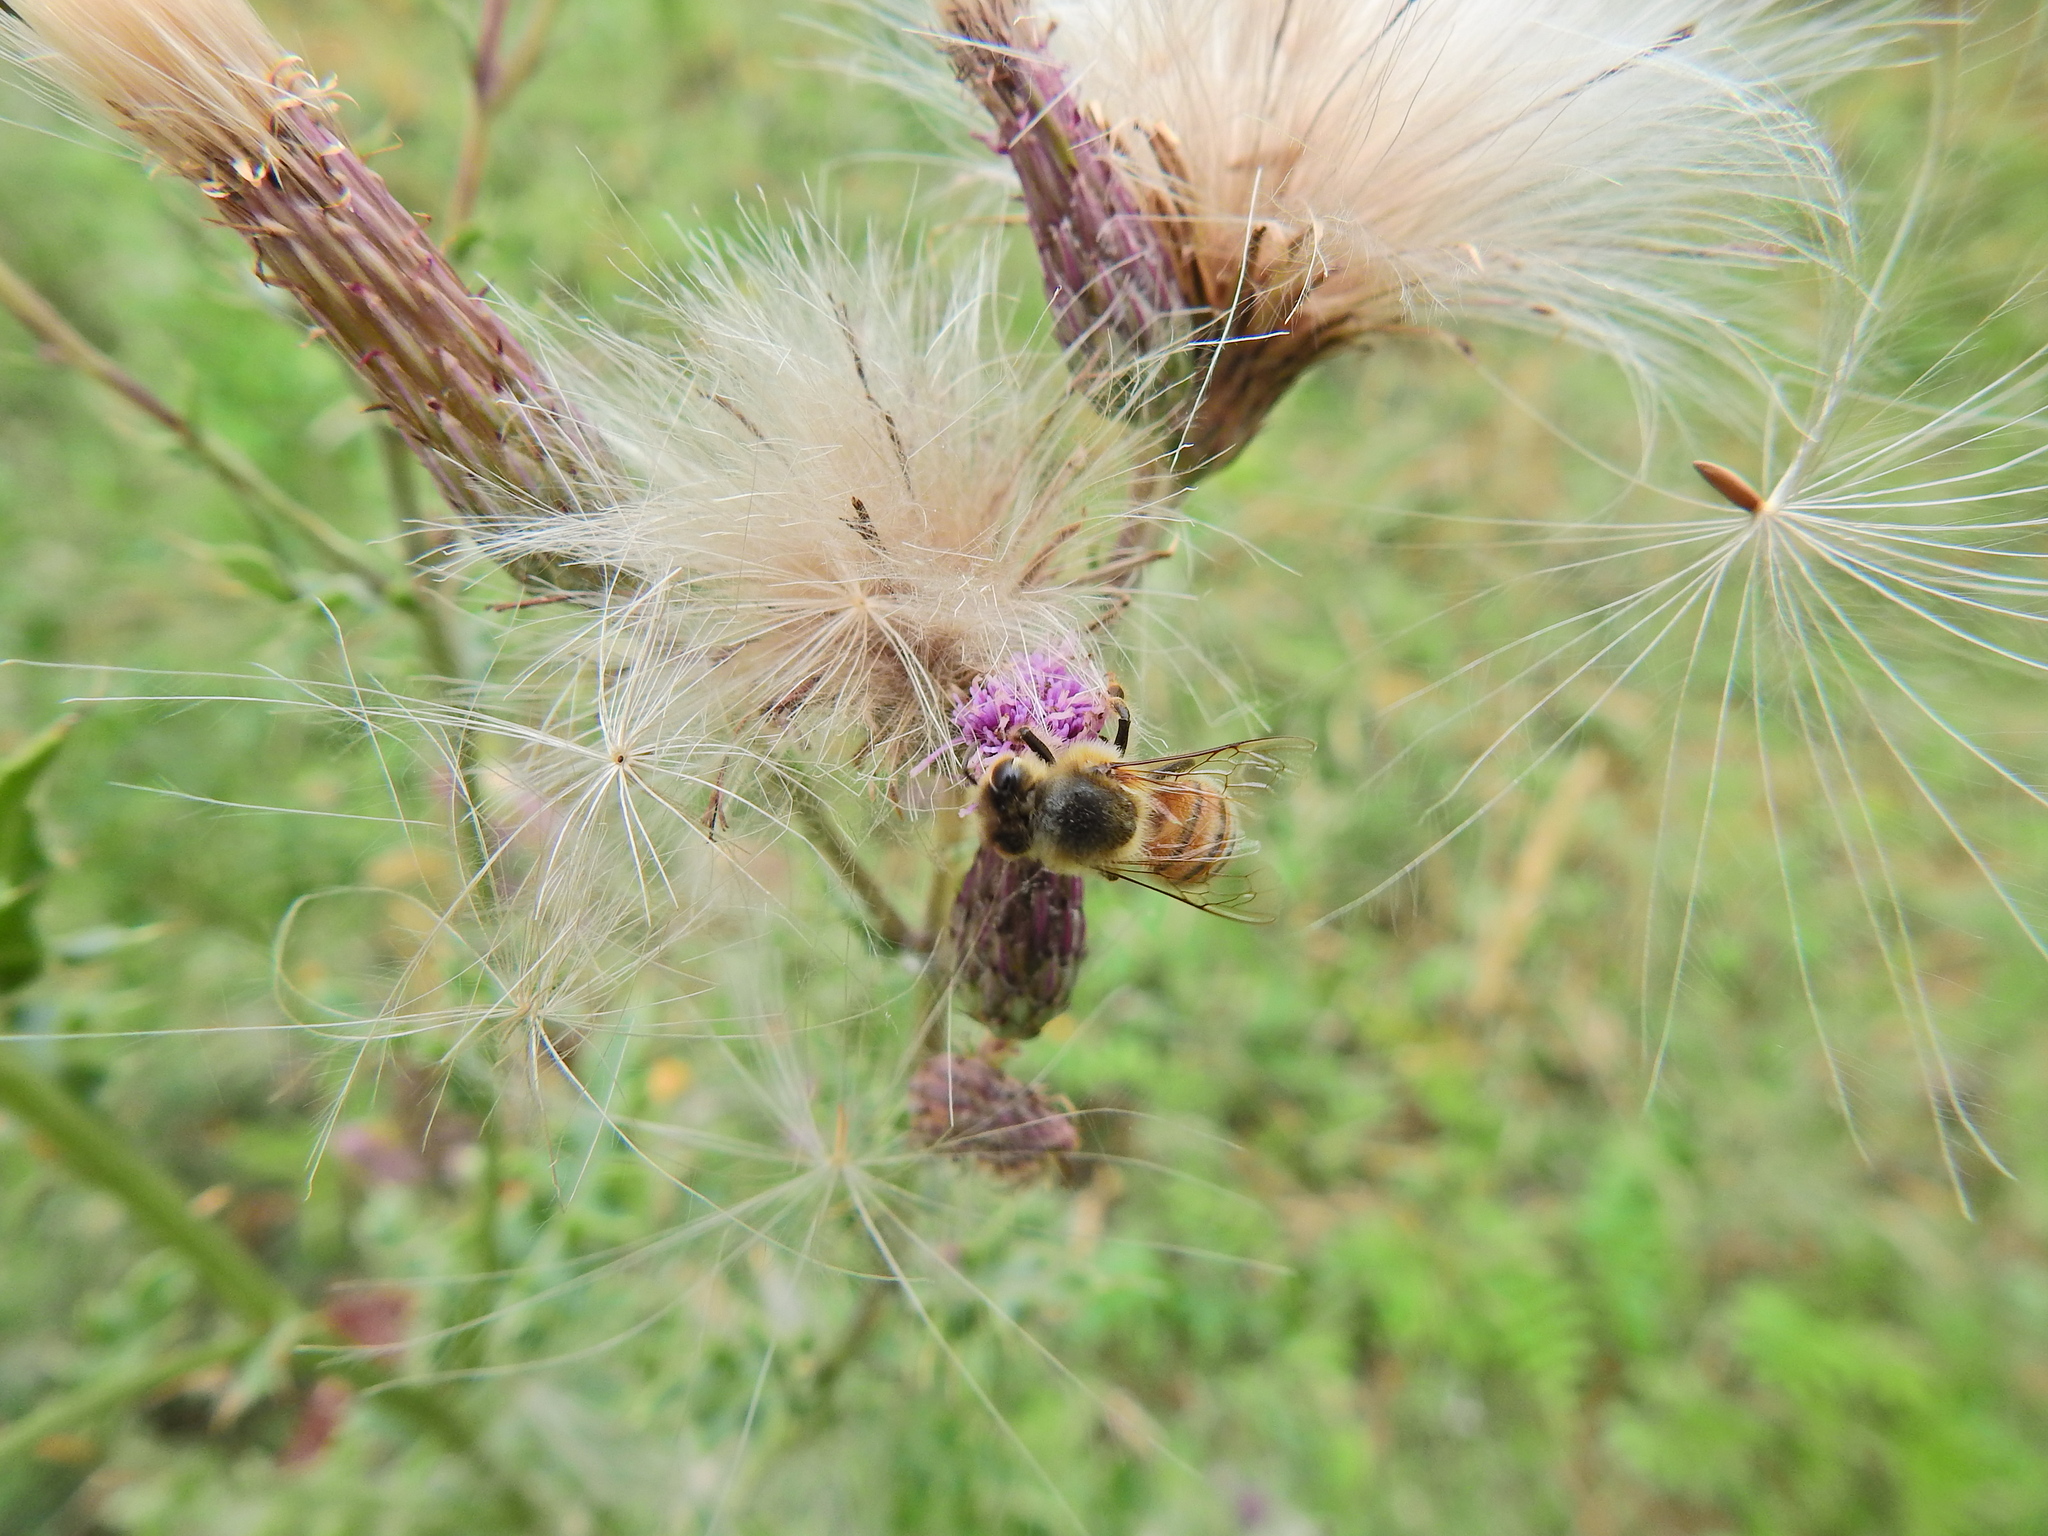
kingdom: Animalia
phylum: Arthropoda
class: Insecta
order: Hymenoptera
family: Apidae
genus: Apis
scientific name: Apis mellifera
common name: Honey bee
